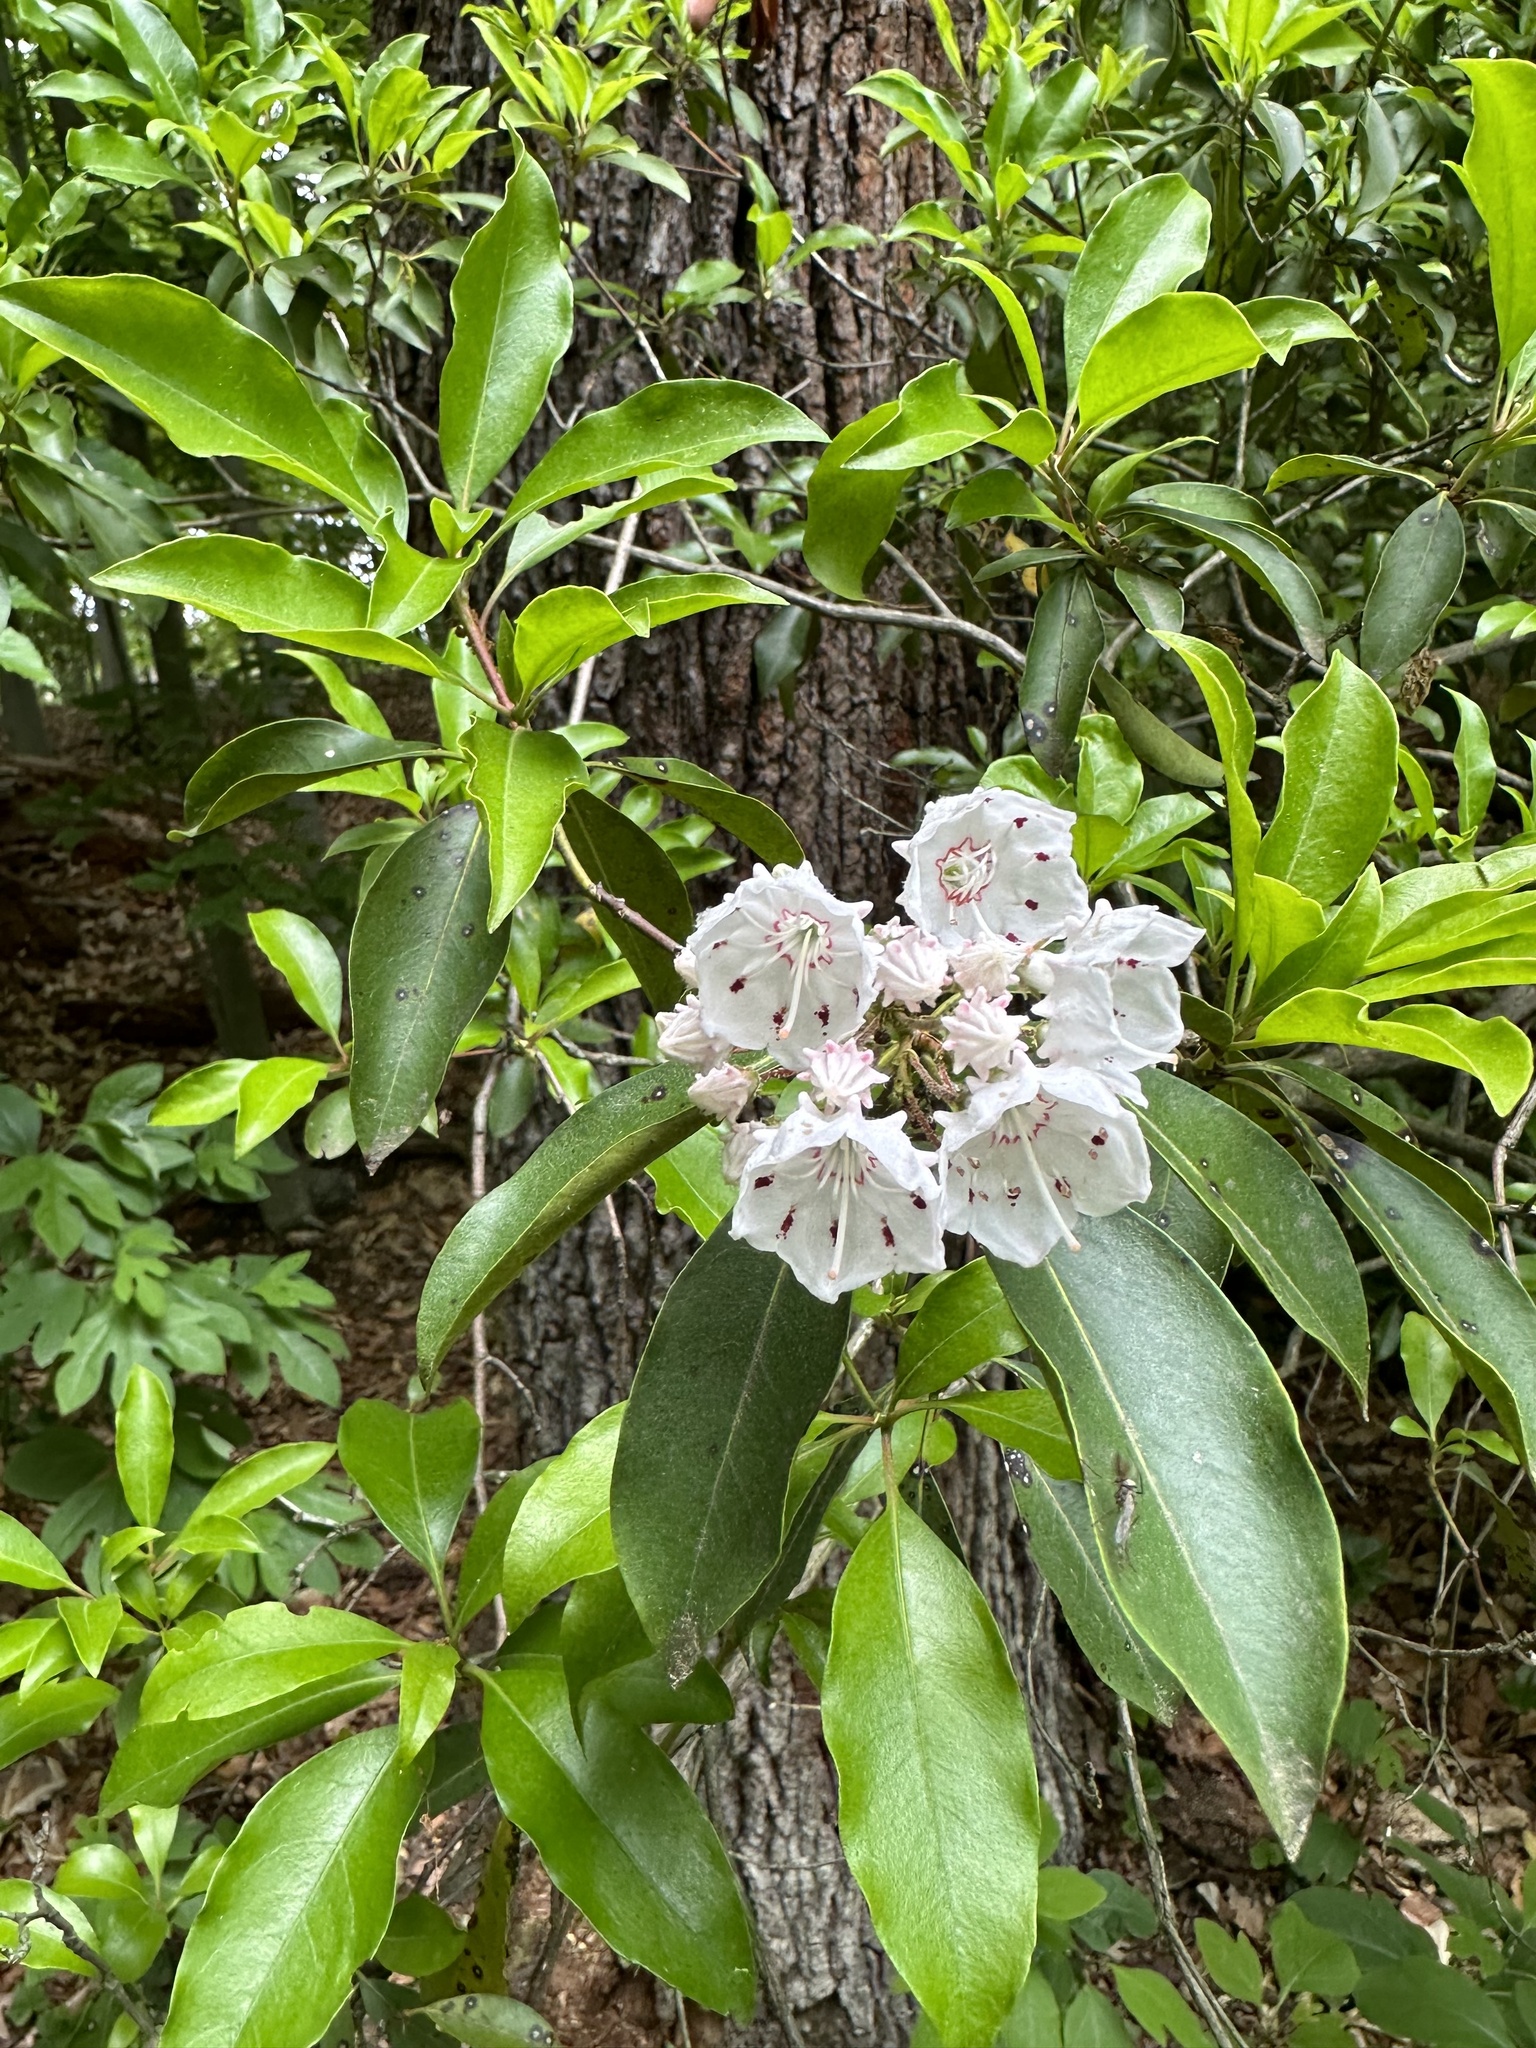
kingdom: Plantae
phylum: Tracheophyta
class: Magnoliopsida
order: Ericales
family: Ericaceae
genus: Kalmia
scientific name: Kalmia latifolia
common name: Mountain-laurel
